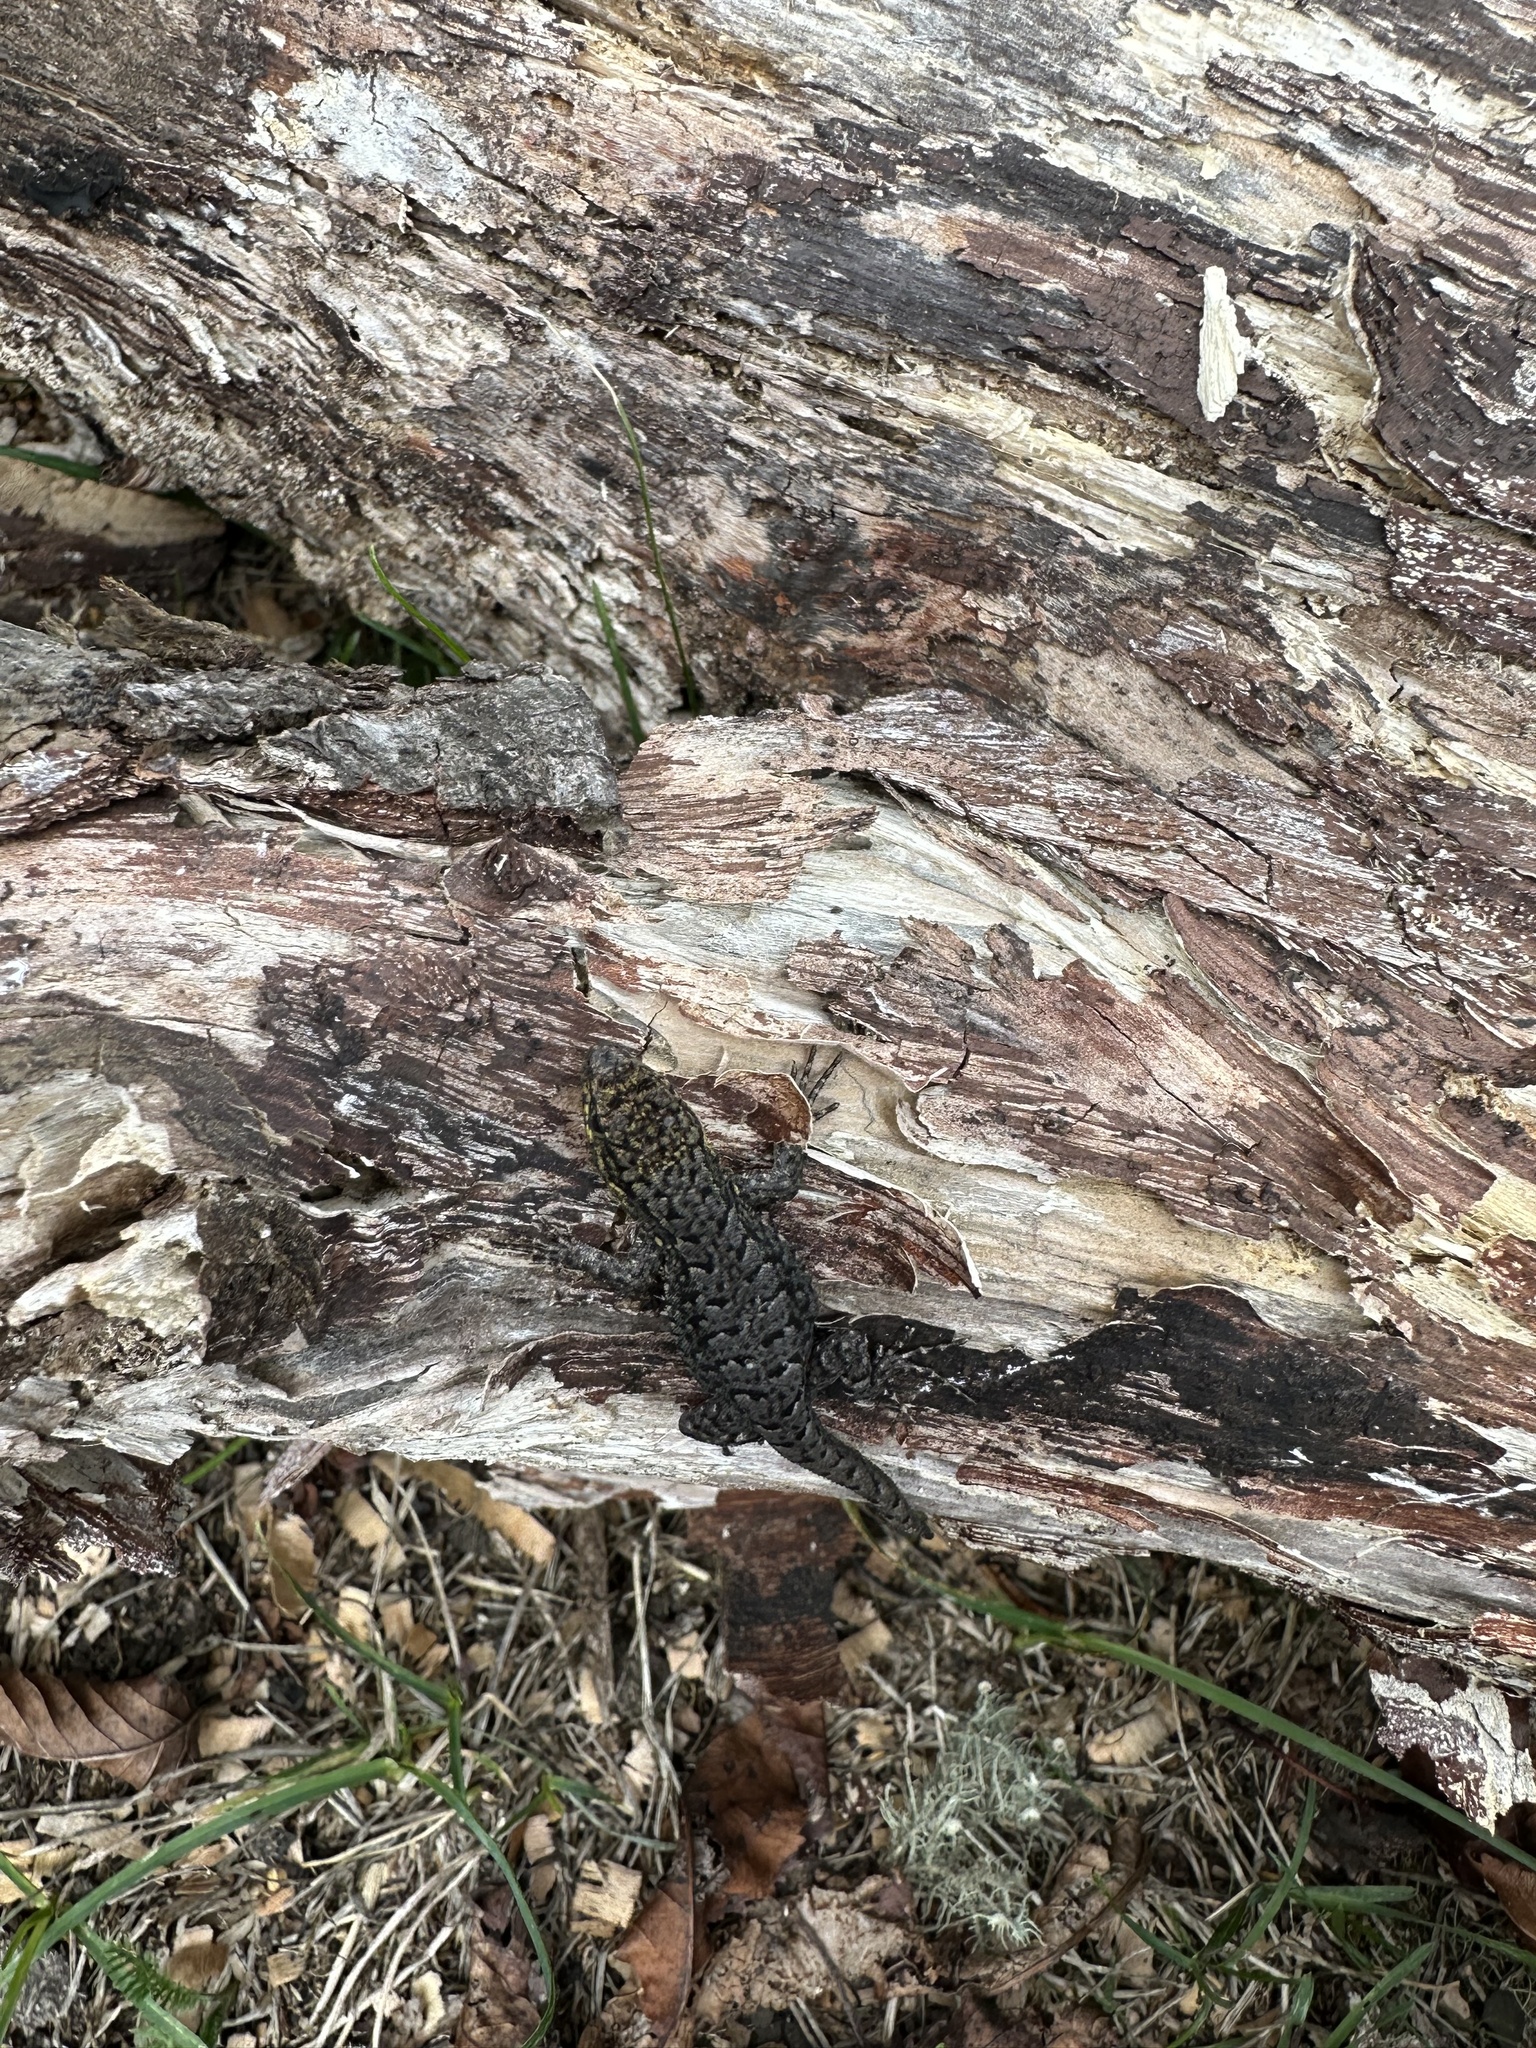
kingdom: Animalia
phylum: Chordata
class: Squamata
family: Liolaemidae
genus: Liolaemus
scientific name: Liolaemus tenuis
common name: Thin tree iguana
